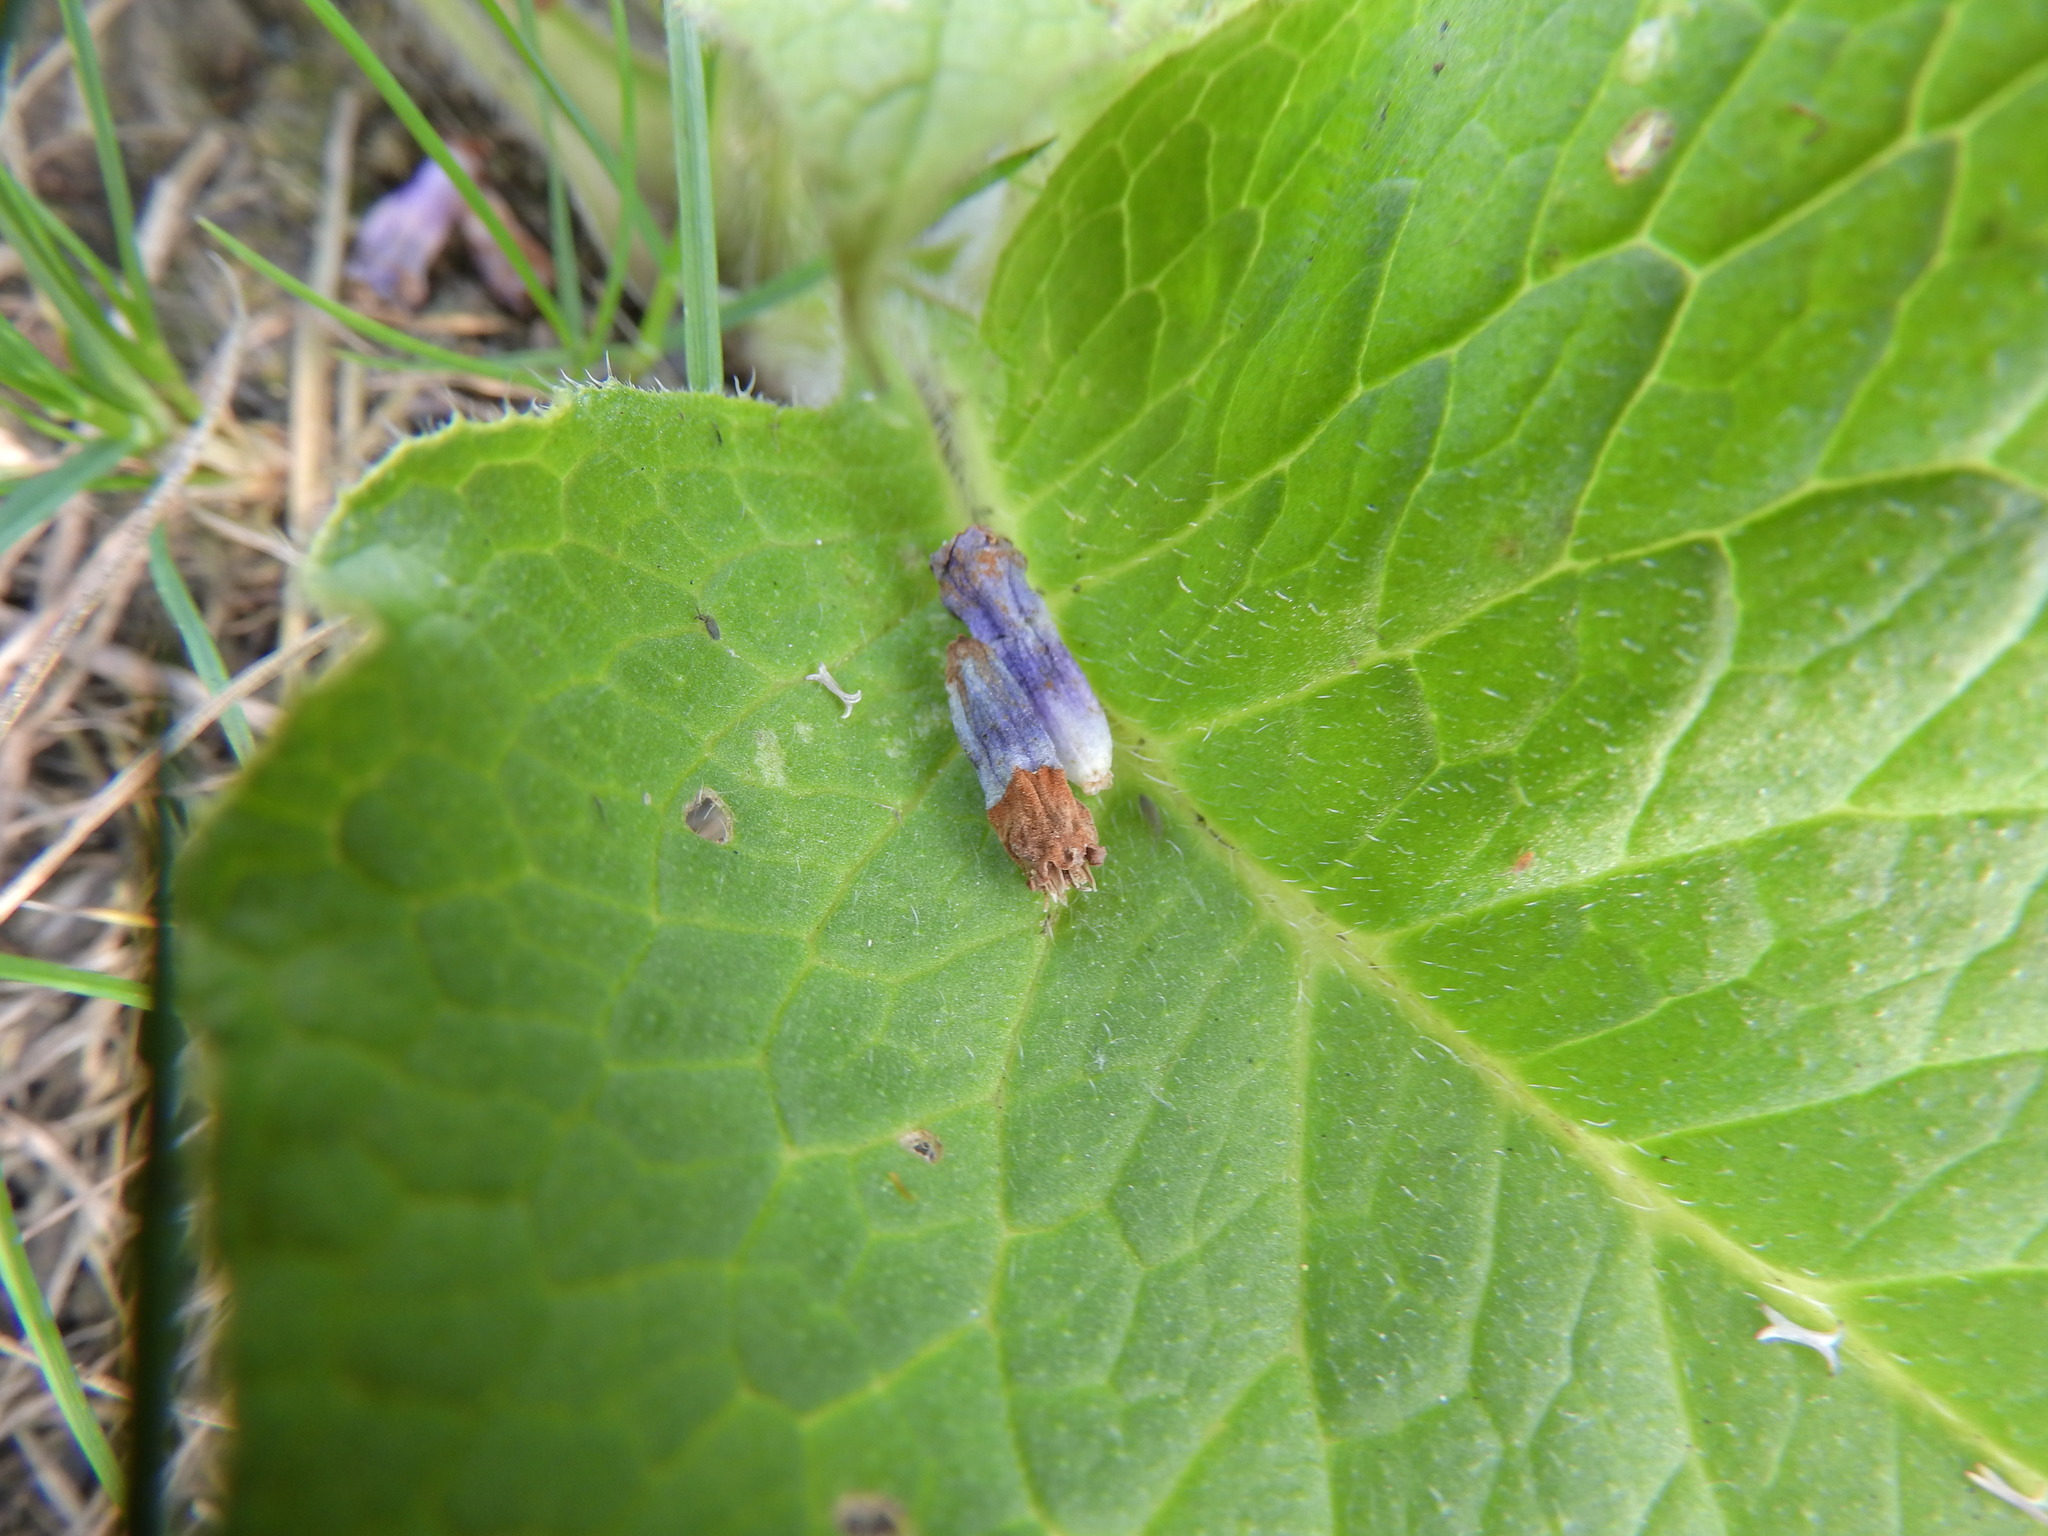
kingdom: Plantae
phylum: Tracheophyta
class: Magnoliopsida
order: Boraginales
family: Boraginaceae
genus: Symphytum
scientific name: Symphytum officinale
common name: Common comfrey
